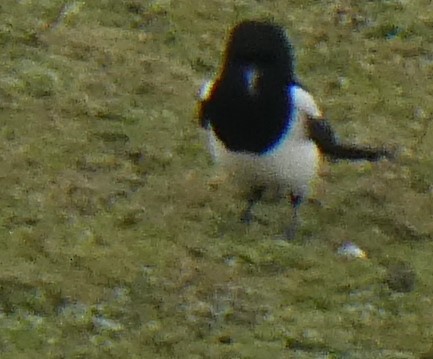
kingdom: Animalia
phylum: Chordata
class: Aves
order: Passeriformes
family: Corvidae
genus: Pica
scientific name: Pica pica
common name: Eurasian magpie
